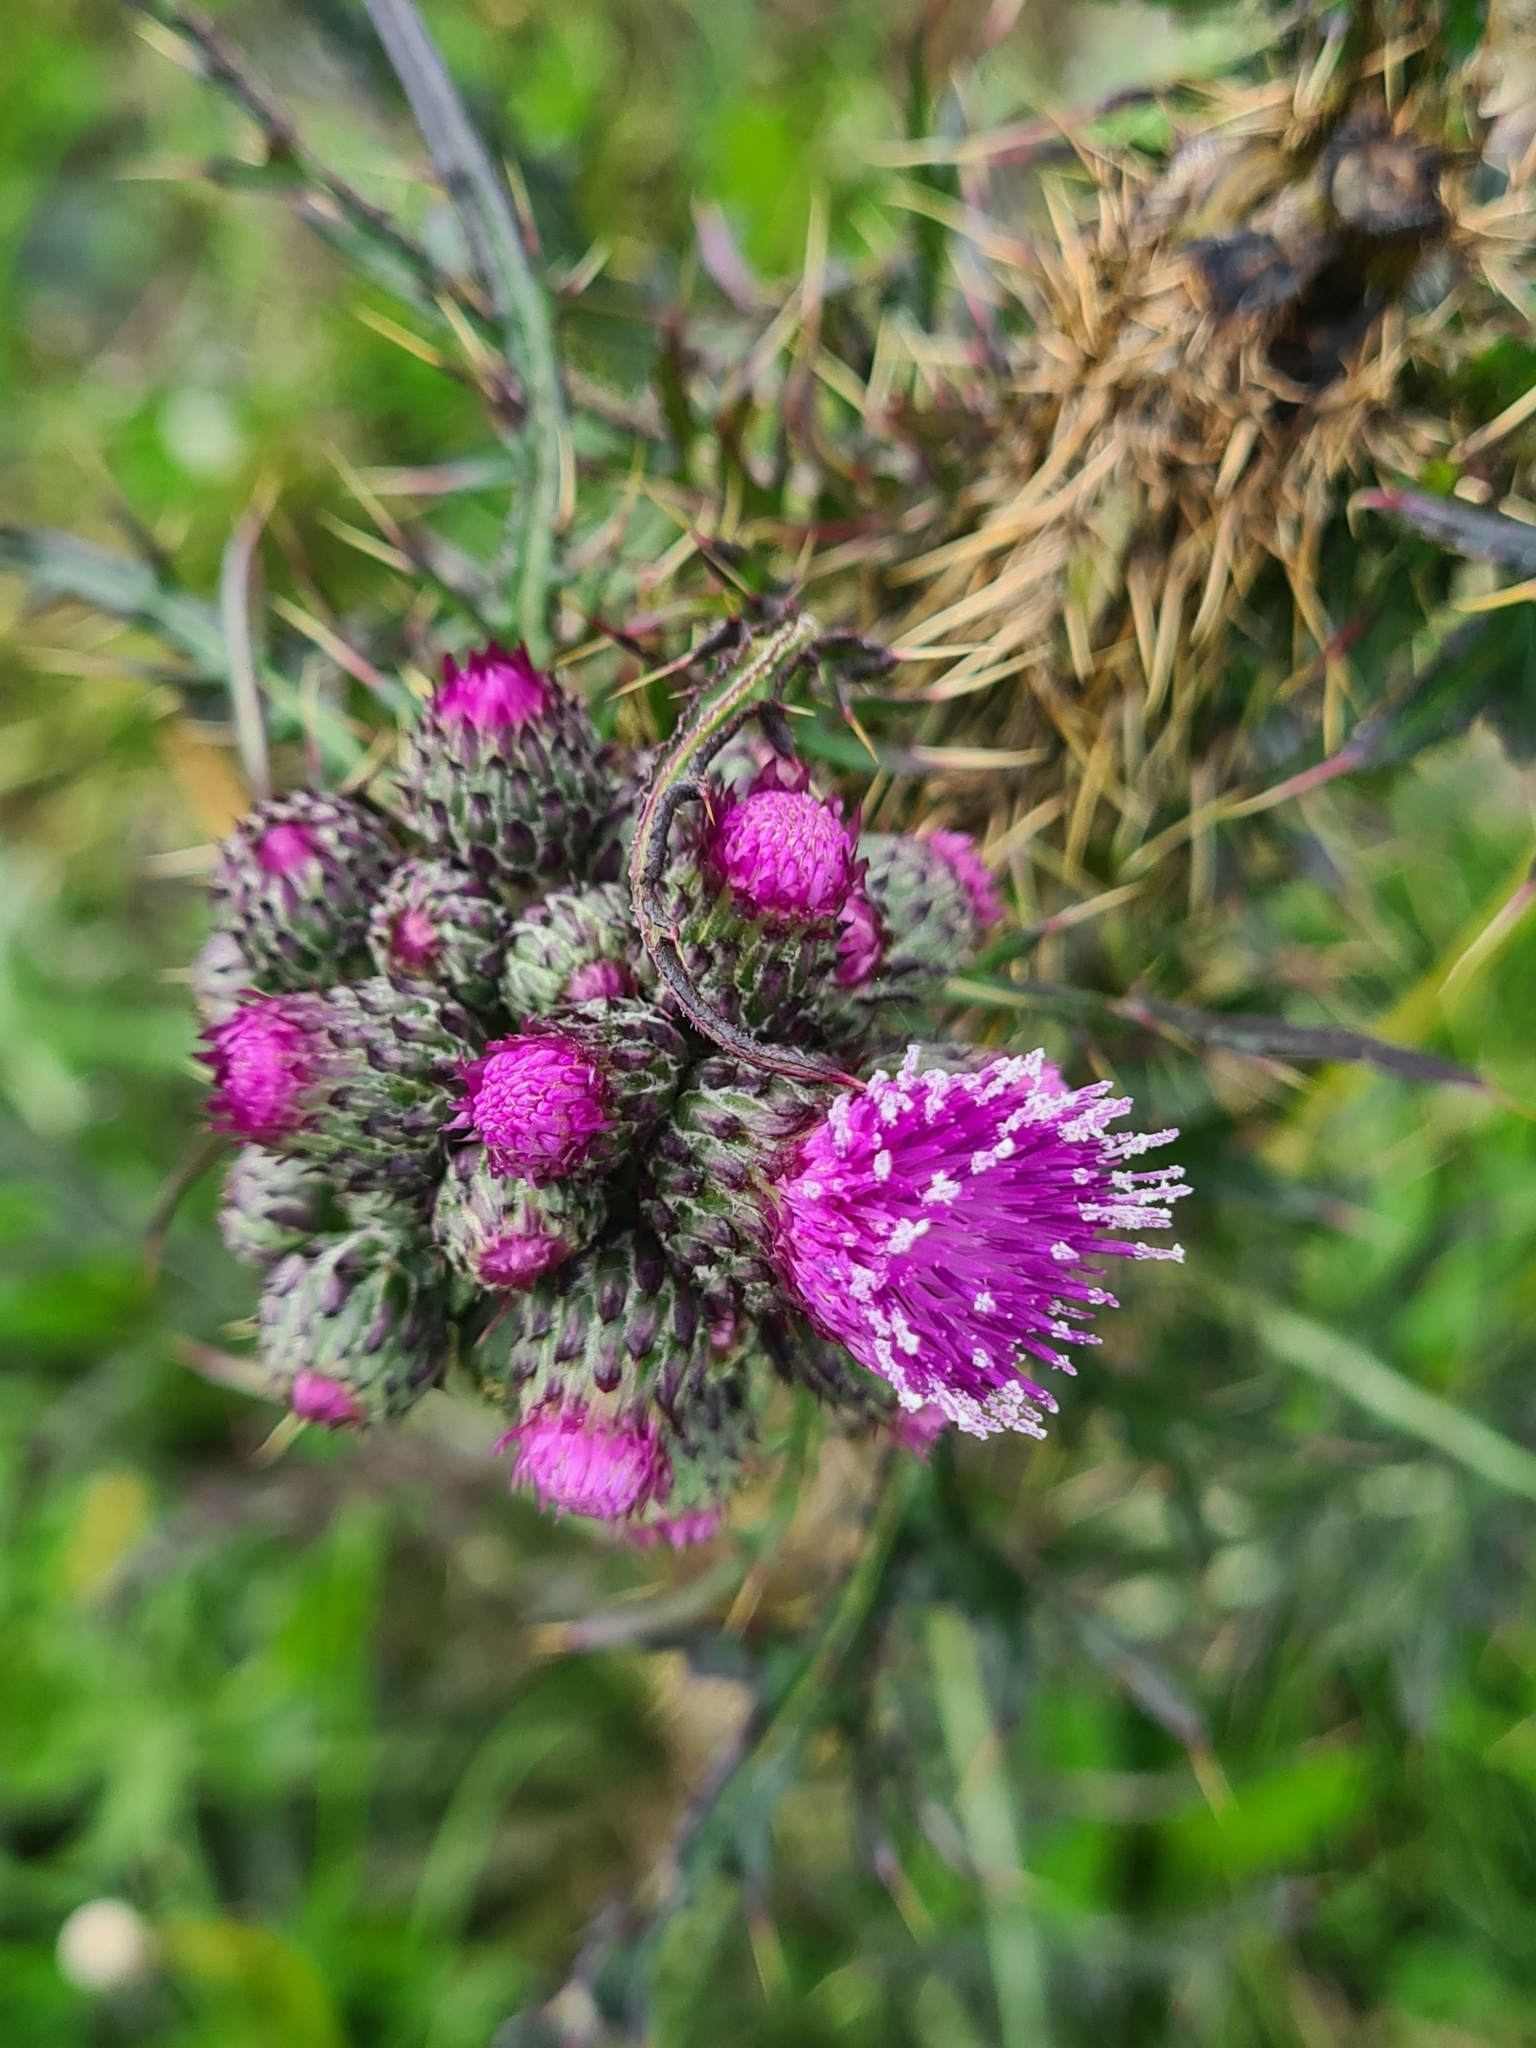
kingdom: Plantae
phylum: Tracheophyta
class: Magnoliopsida
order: Asterales
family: Asteraceae
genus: Cirsium
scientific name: Cirsium palustre
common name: Marsh thistle
